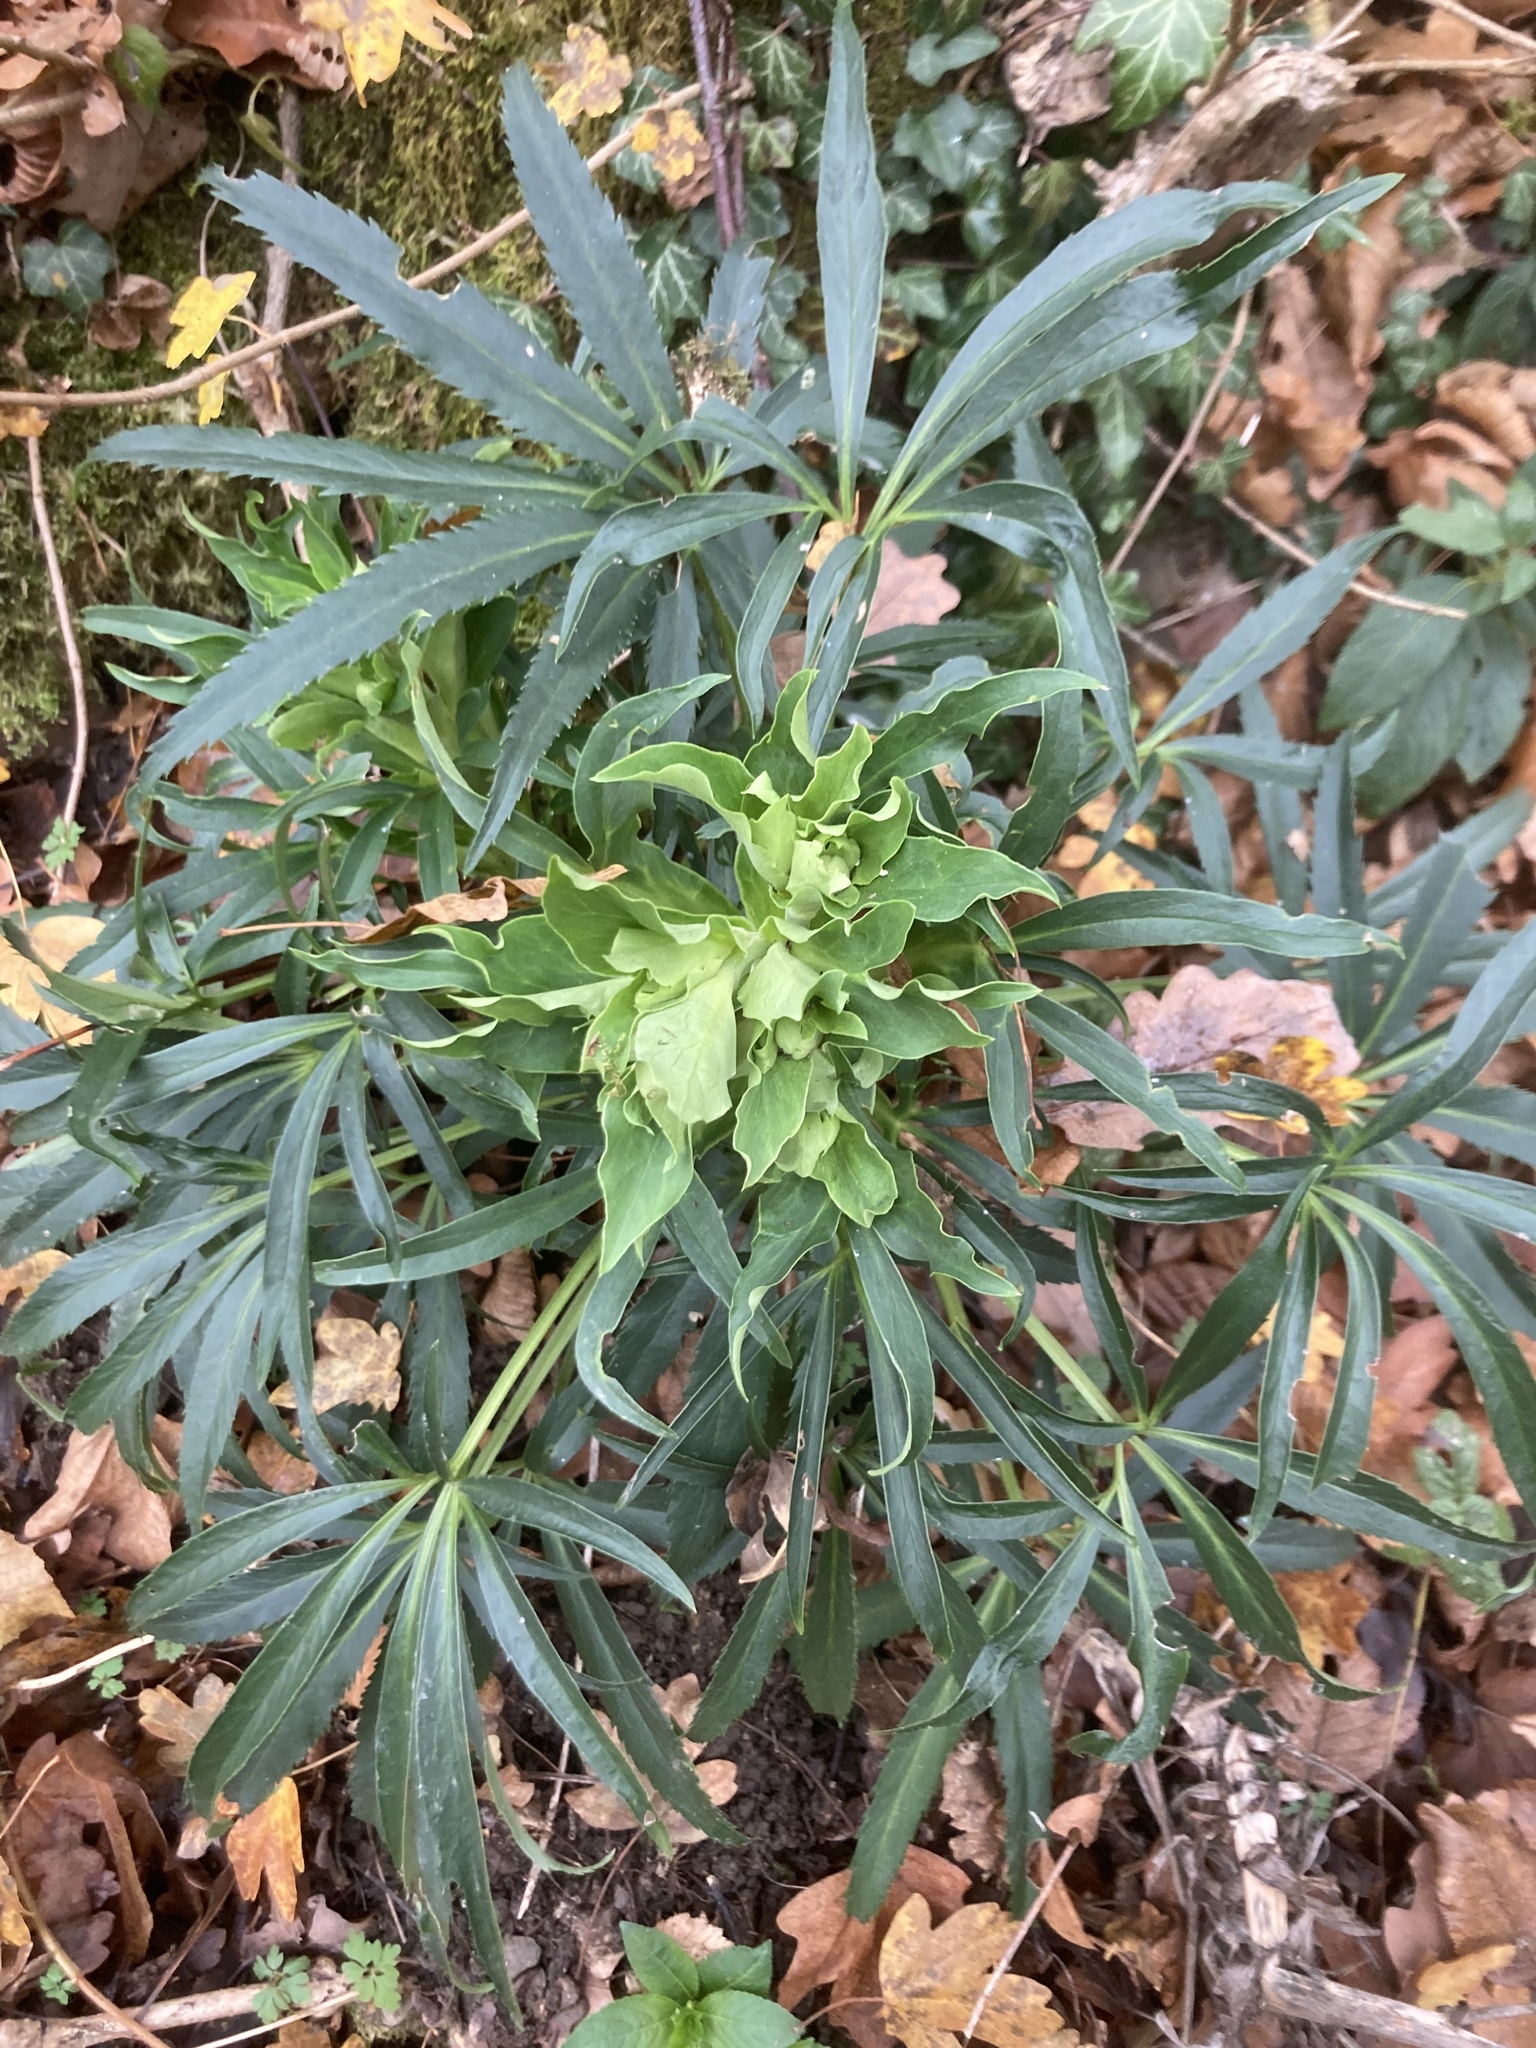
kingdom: Plantae
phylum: Tracheophyta
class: Magnoliopsida
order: Ranunculales
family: Ranunculaceae
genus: Helleborus
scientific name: Helleborus foetidus
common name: Stinking hellebore
